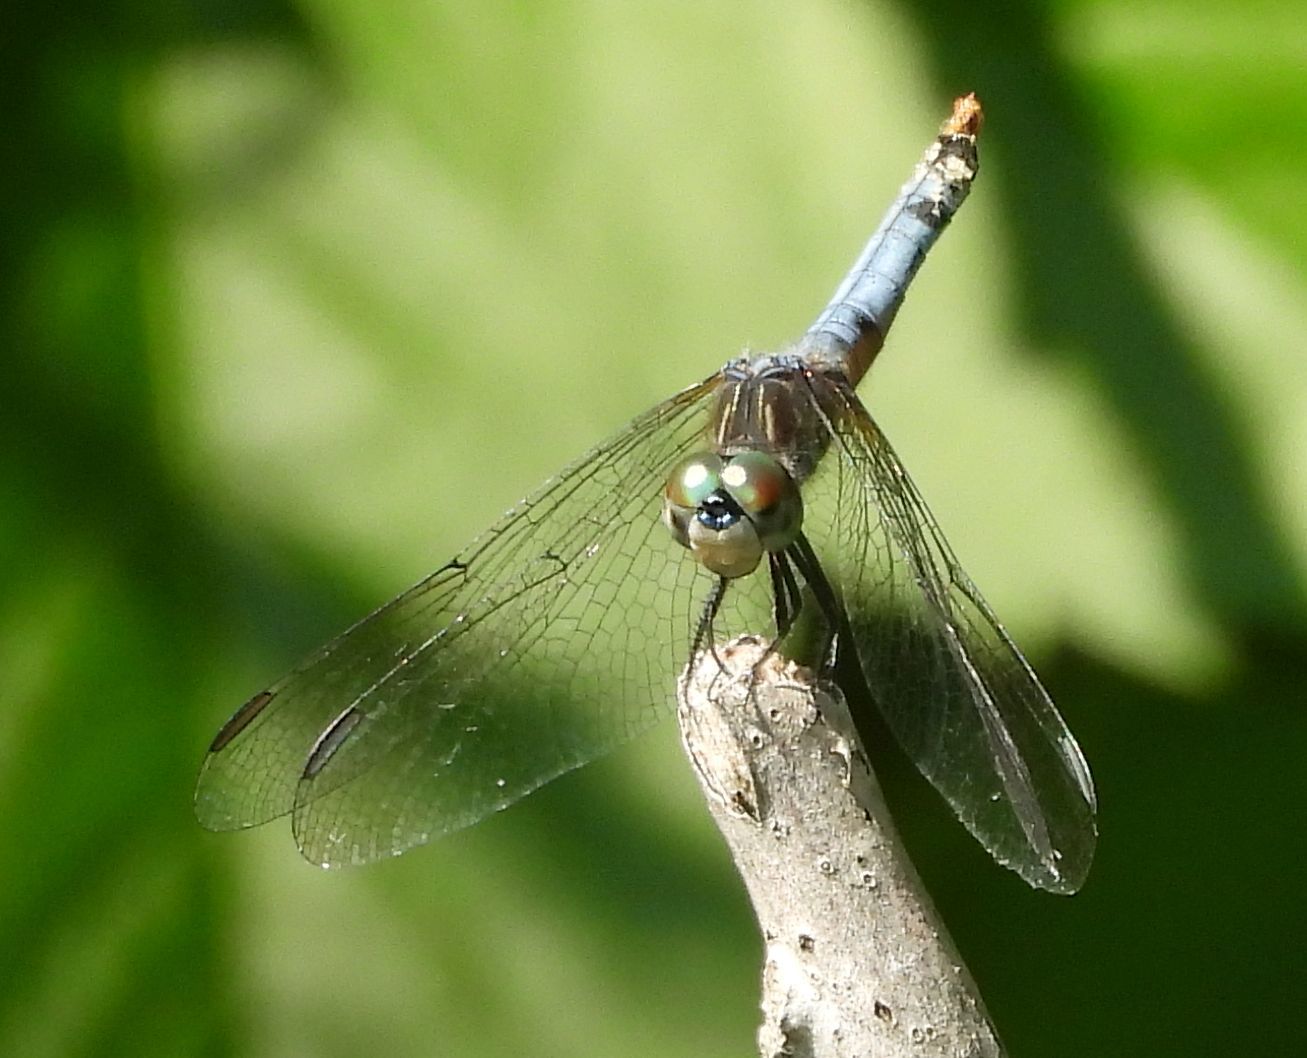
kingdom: Animalia
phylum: Arthropoda
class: Insecta
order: Odonata
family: Libellulidae
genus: Pachydiplax
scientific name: Pachydiplax longipennis
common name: Blue dasher
